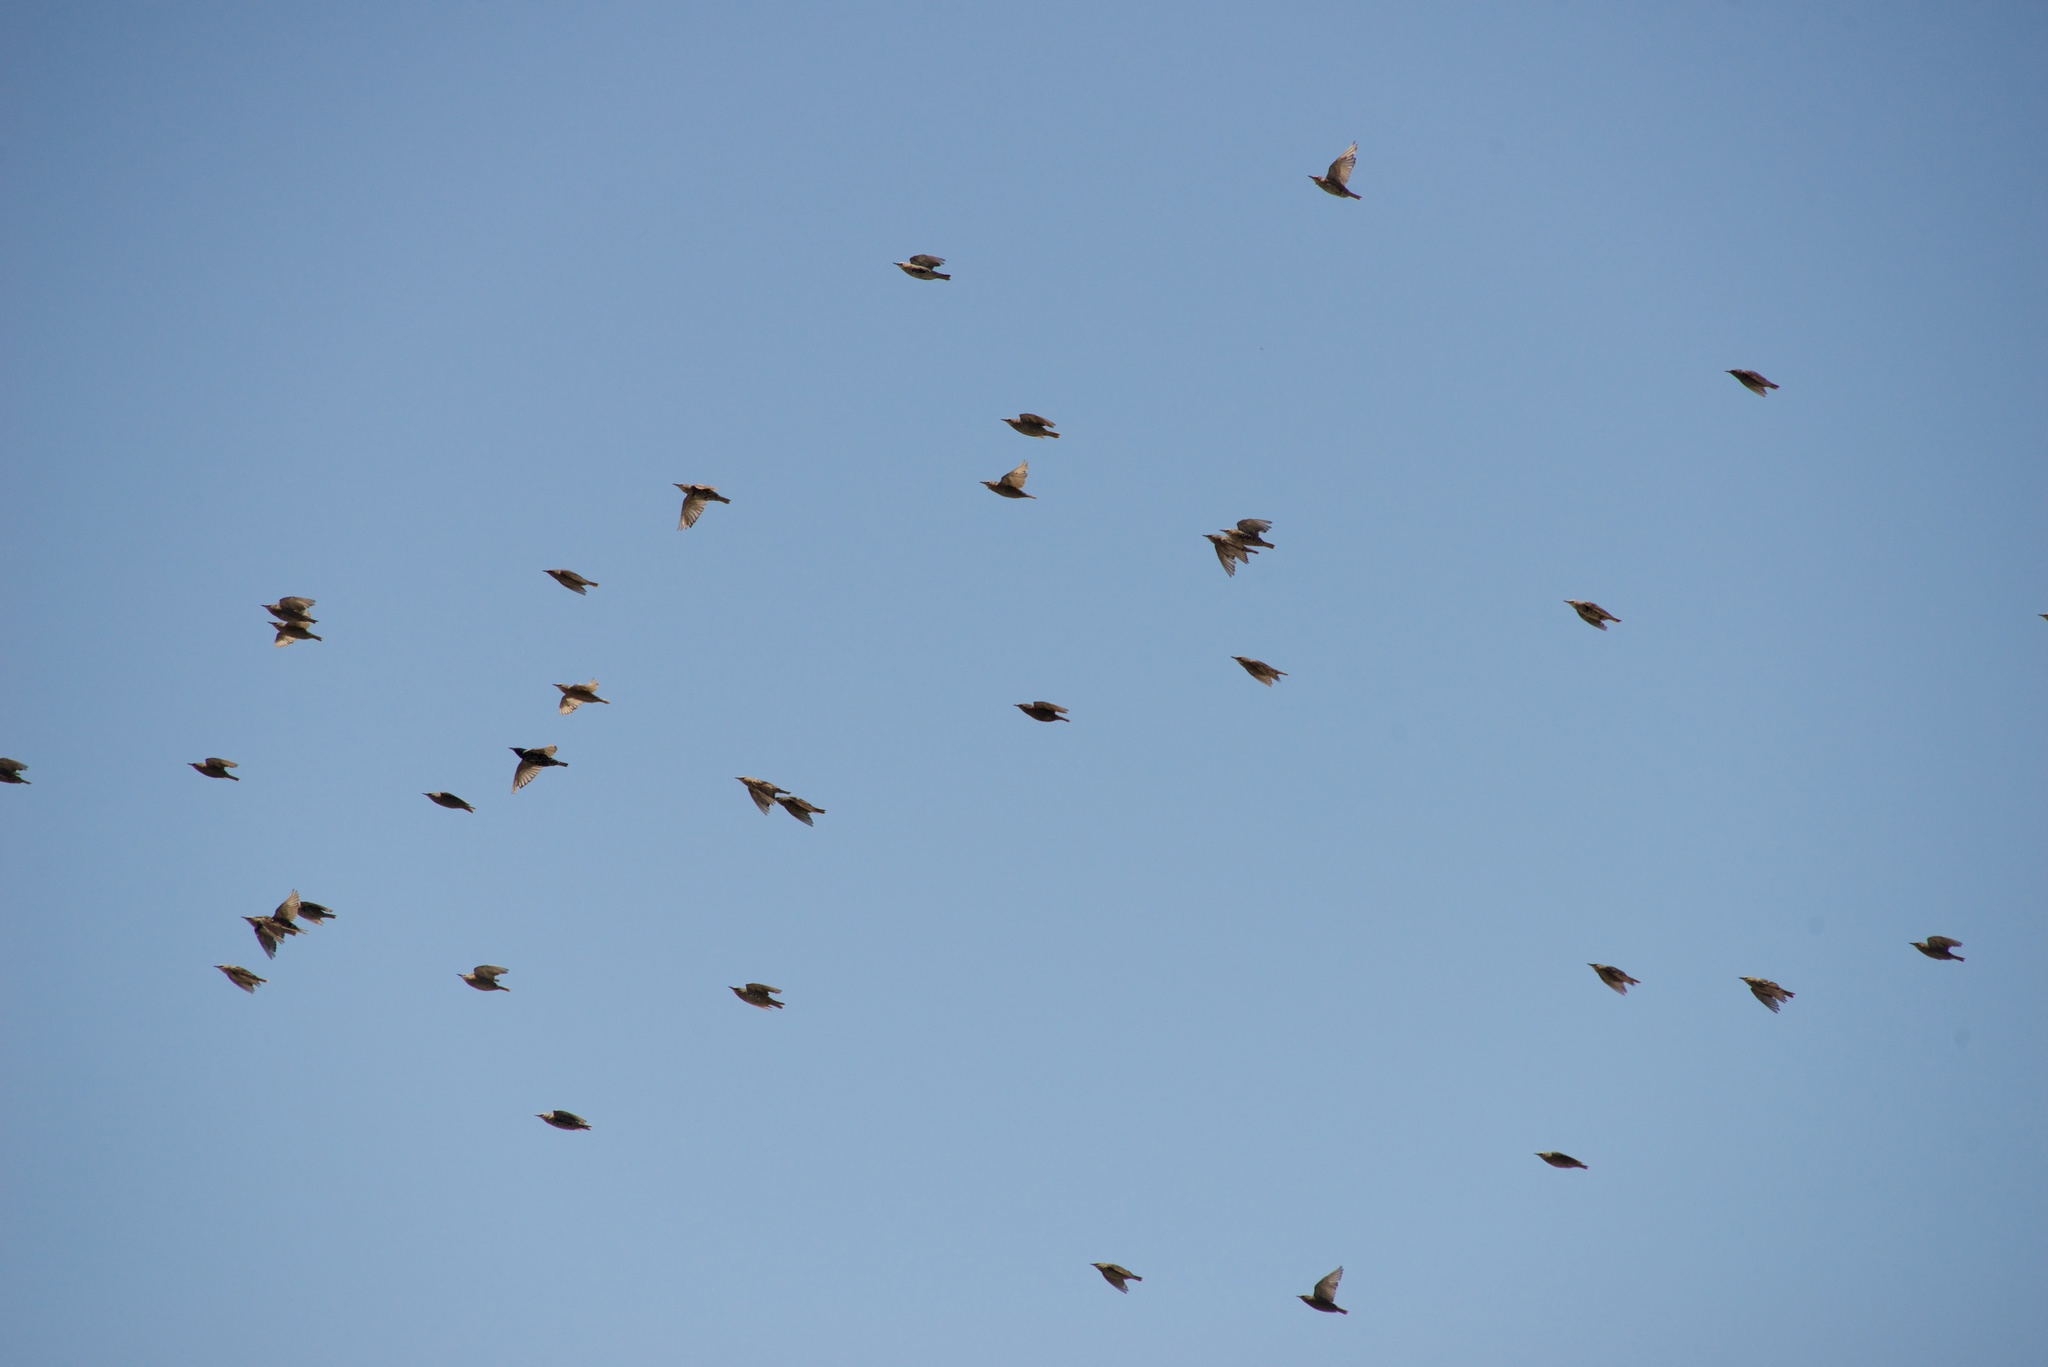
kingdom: Animalia
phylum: Chordata
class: Aves
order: Passeriformes
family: Sturnidae
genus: Sturnus
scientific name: Sturnus vulgaris
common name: Common starling
